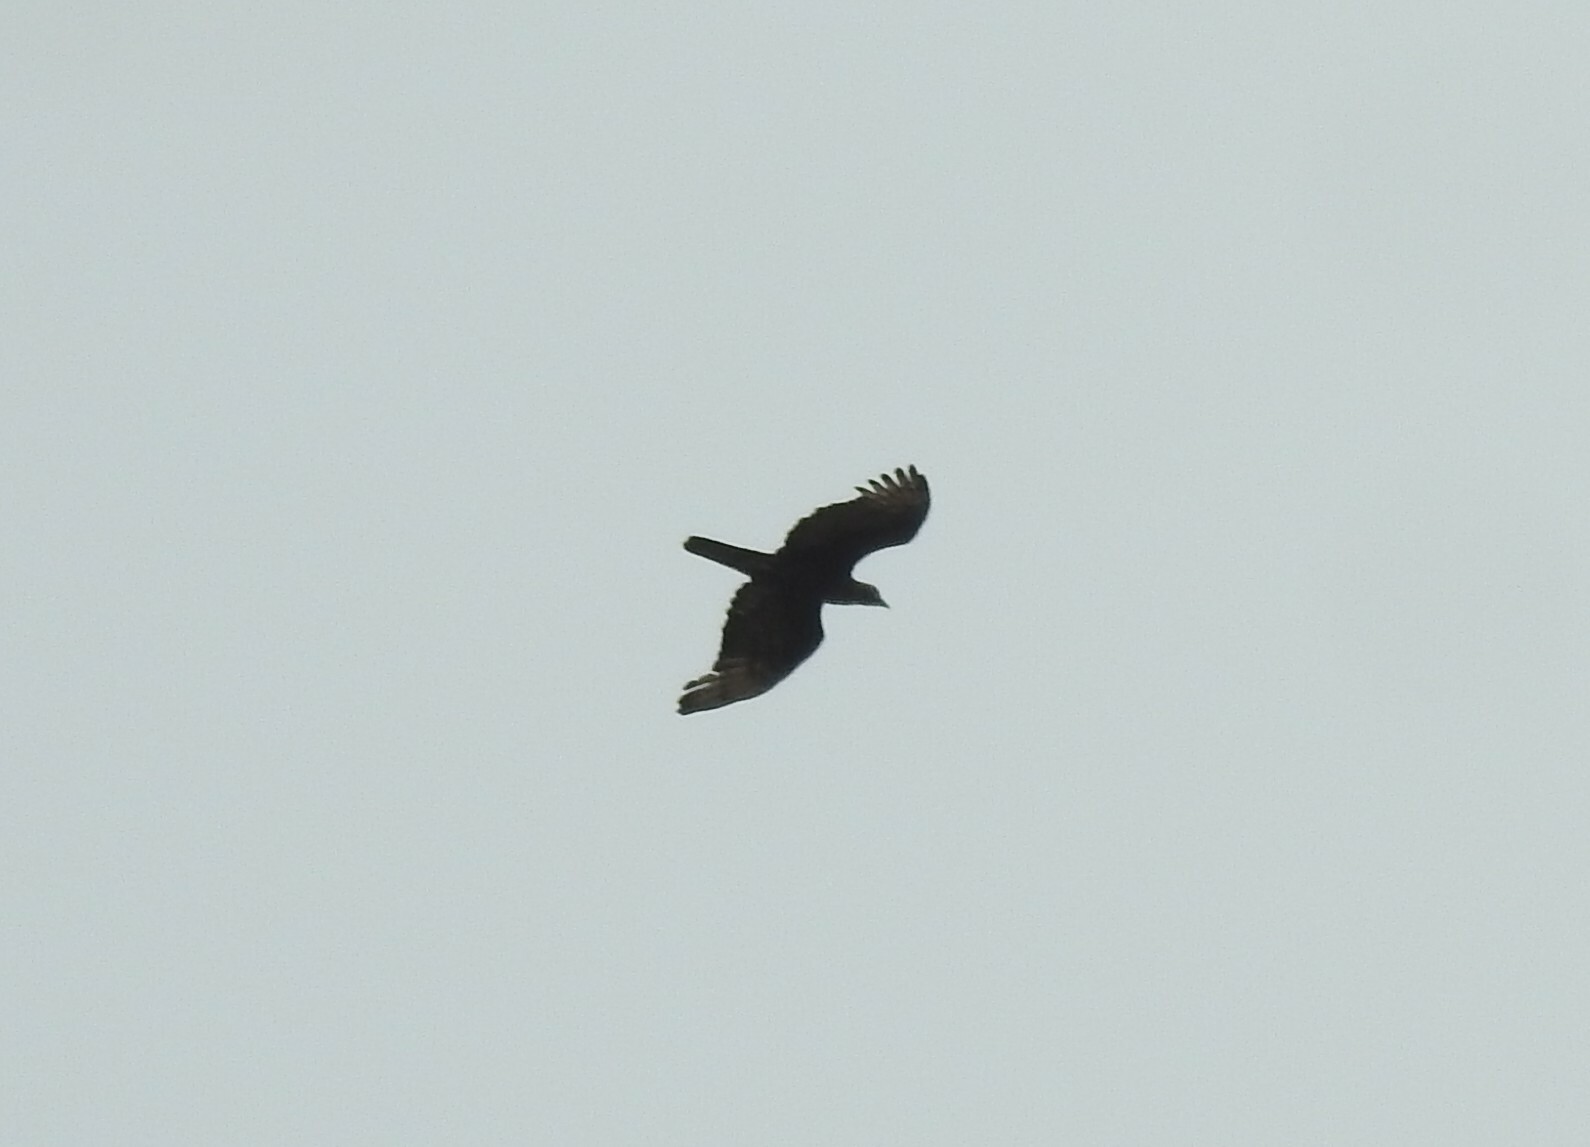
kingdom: Animalia
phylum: Chordata
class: Aves
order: Accipitriformes
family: Accipitridae
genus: Pernis
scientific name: Pernis ptilorhynchus
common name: Crested honey buzzard
